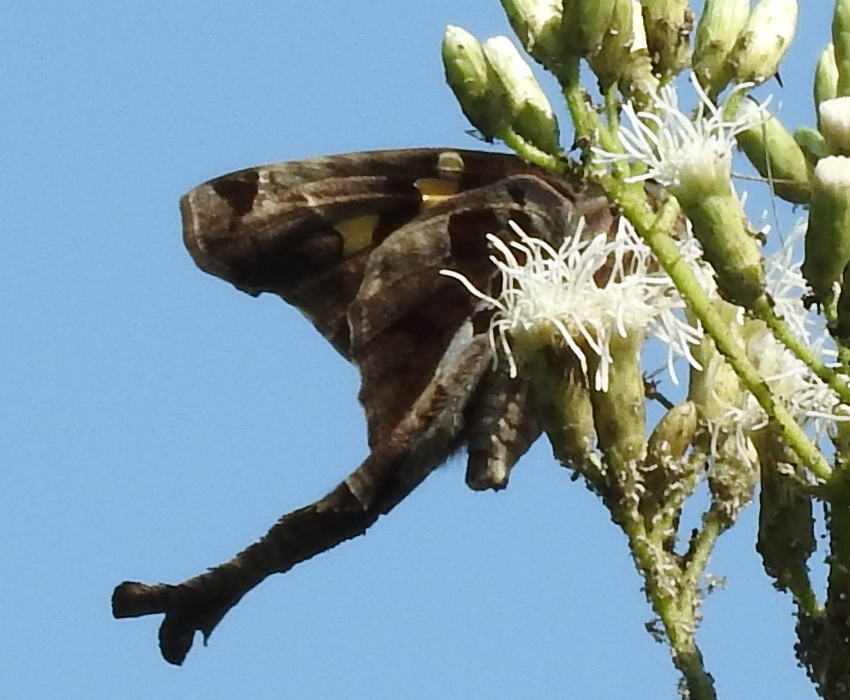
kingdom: Animalia
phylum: Arthropoda
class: Insecta
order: Lepidoptera
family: Hesperiidae
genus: Chioides
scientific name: Chioides zilpa
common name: Zilpa longtail
